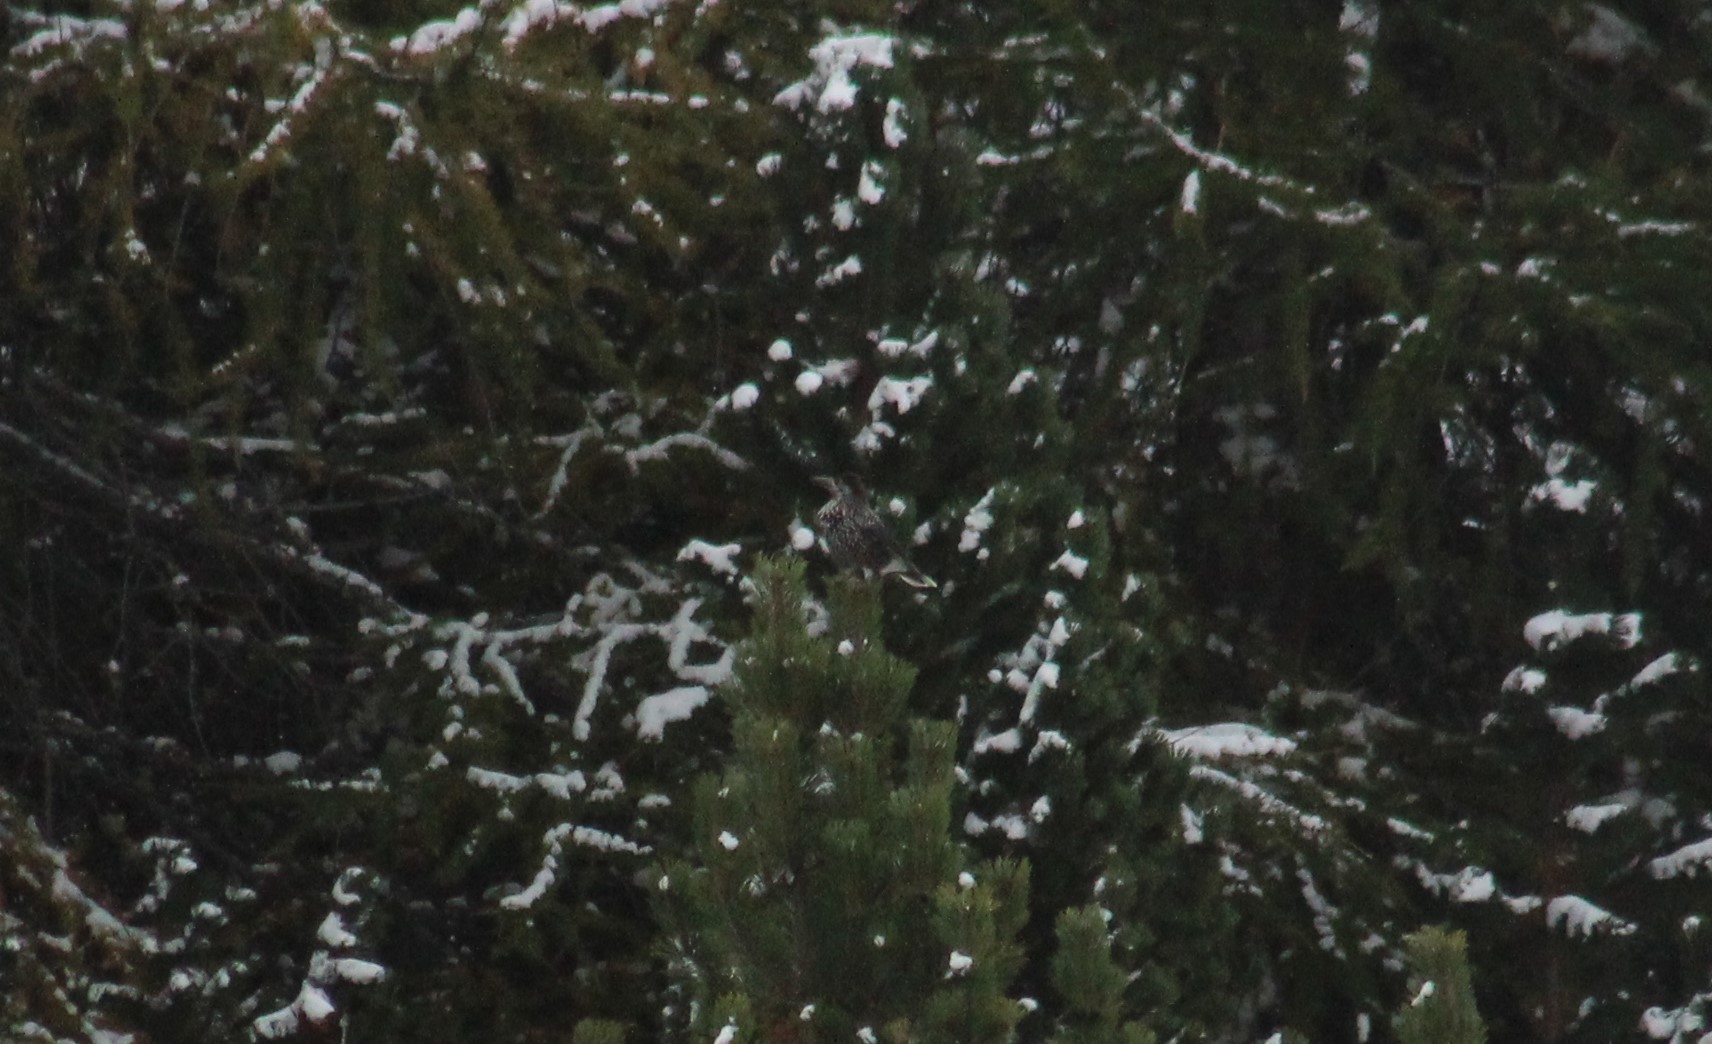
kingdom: Animalia
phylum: Chordata
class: Aves
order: Passeriformes
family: Corvidae
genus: Nucifraga
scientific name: Nucifraga caryocatactes
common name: Spotted nutcracker
